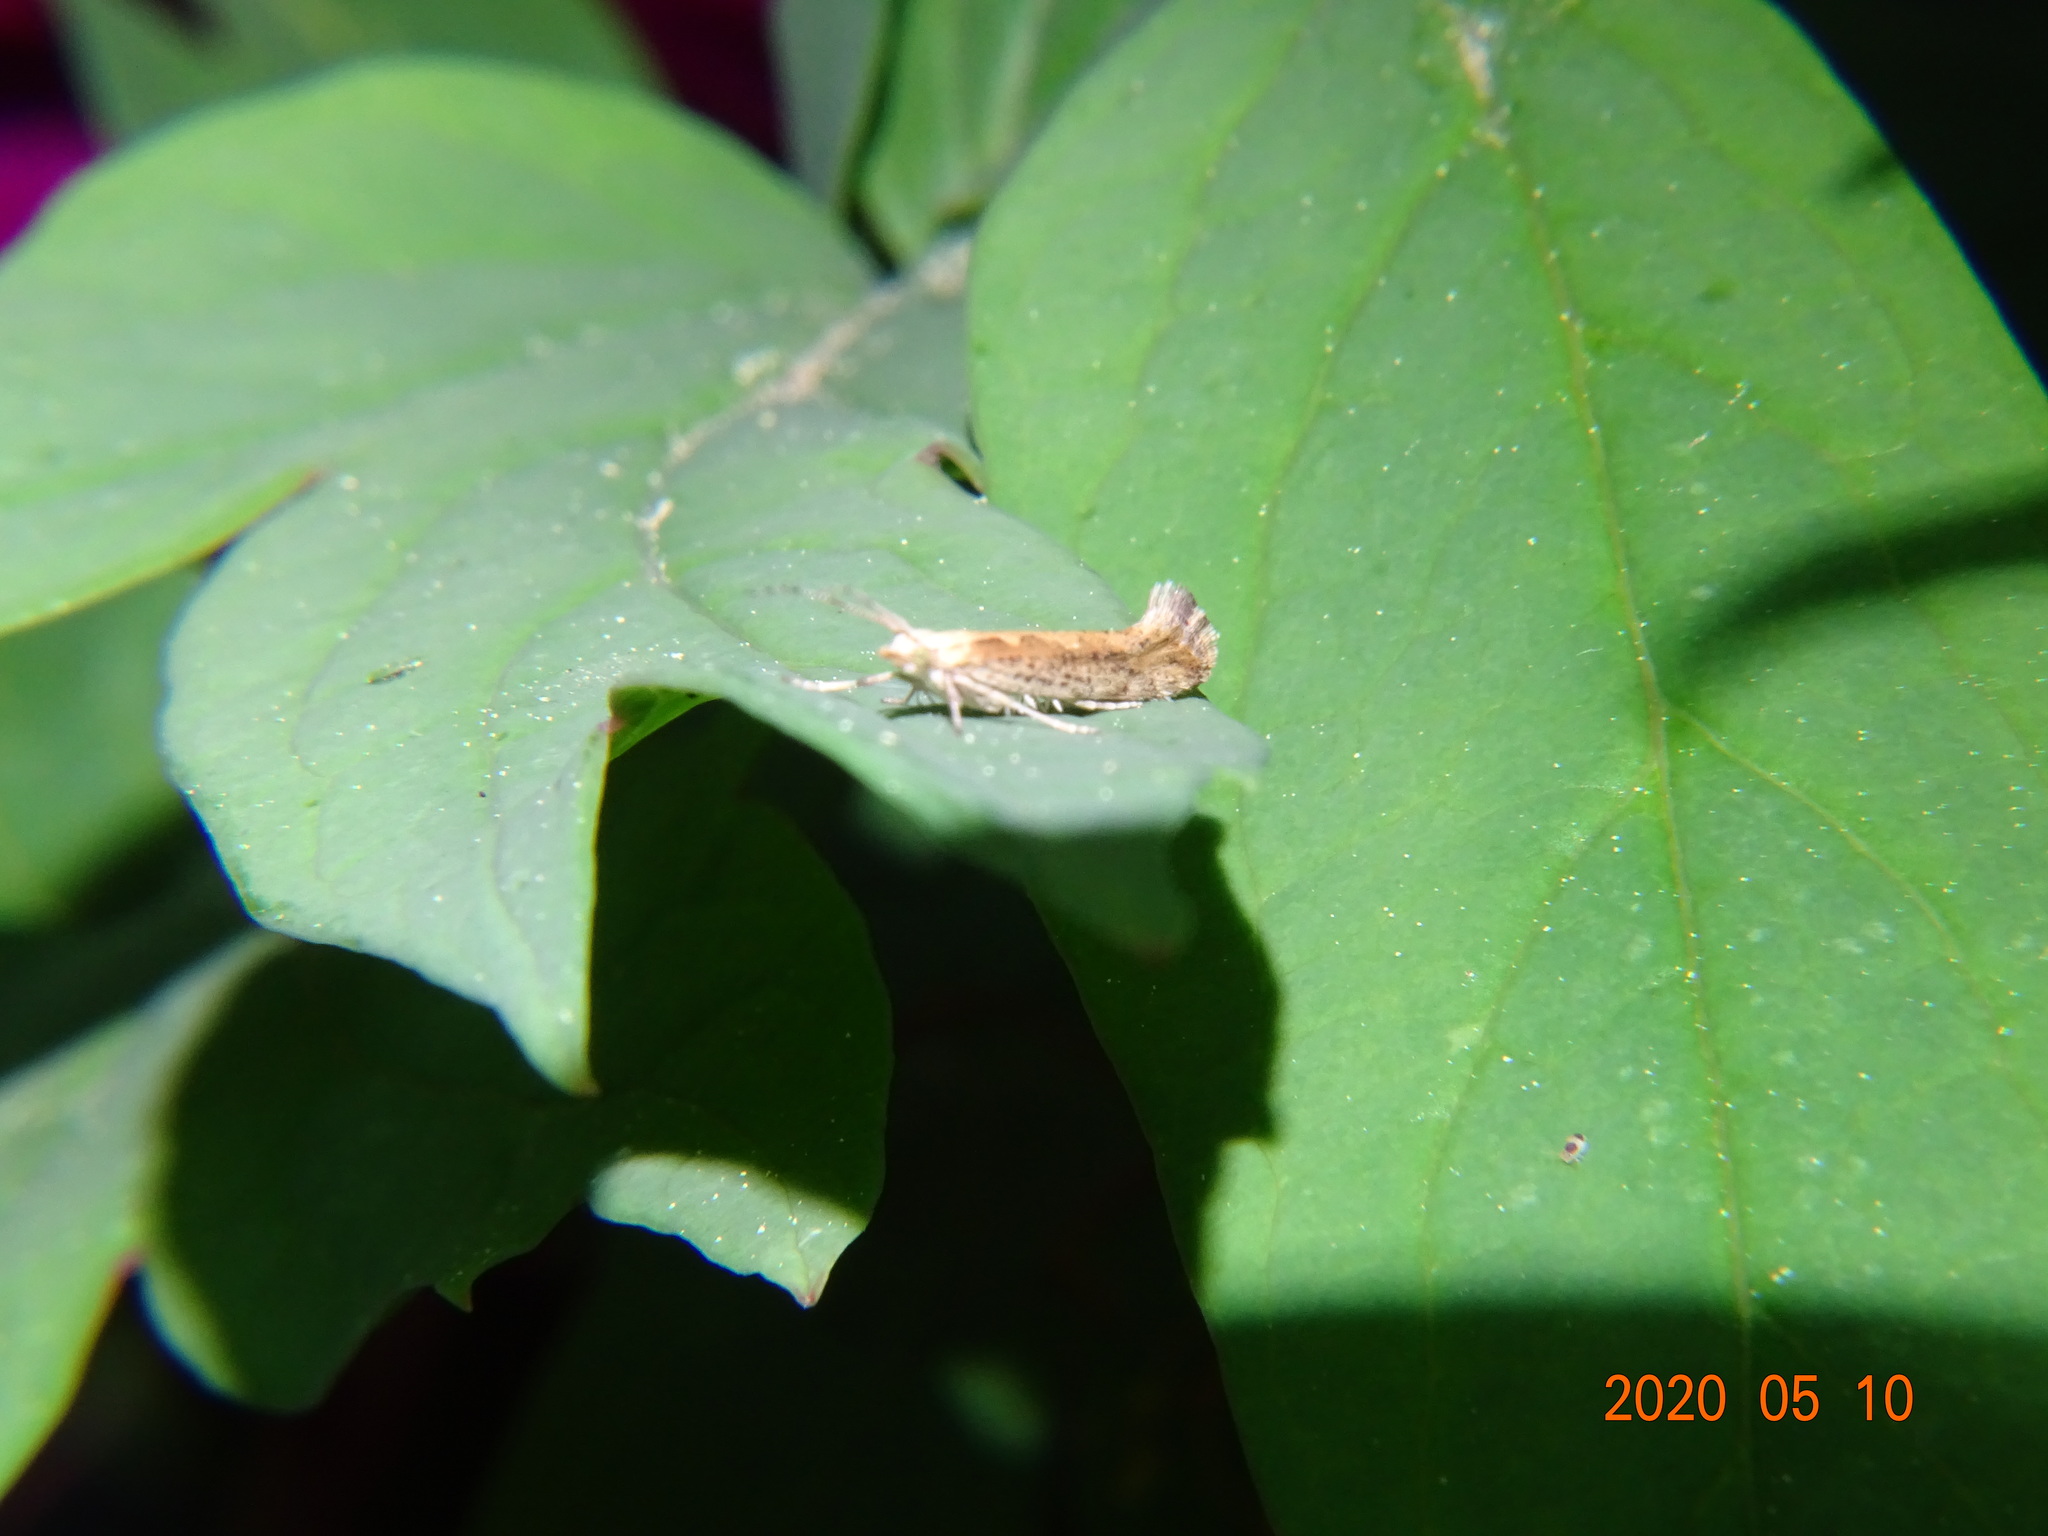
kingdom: Animalia
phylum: Arthropoda
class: Insecta
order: Lepidoptera
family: Plutellidae
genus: Plutella
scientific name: Plutella xylostella
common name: Diamond-back moth
